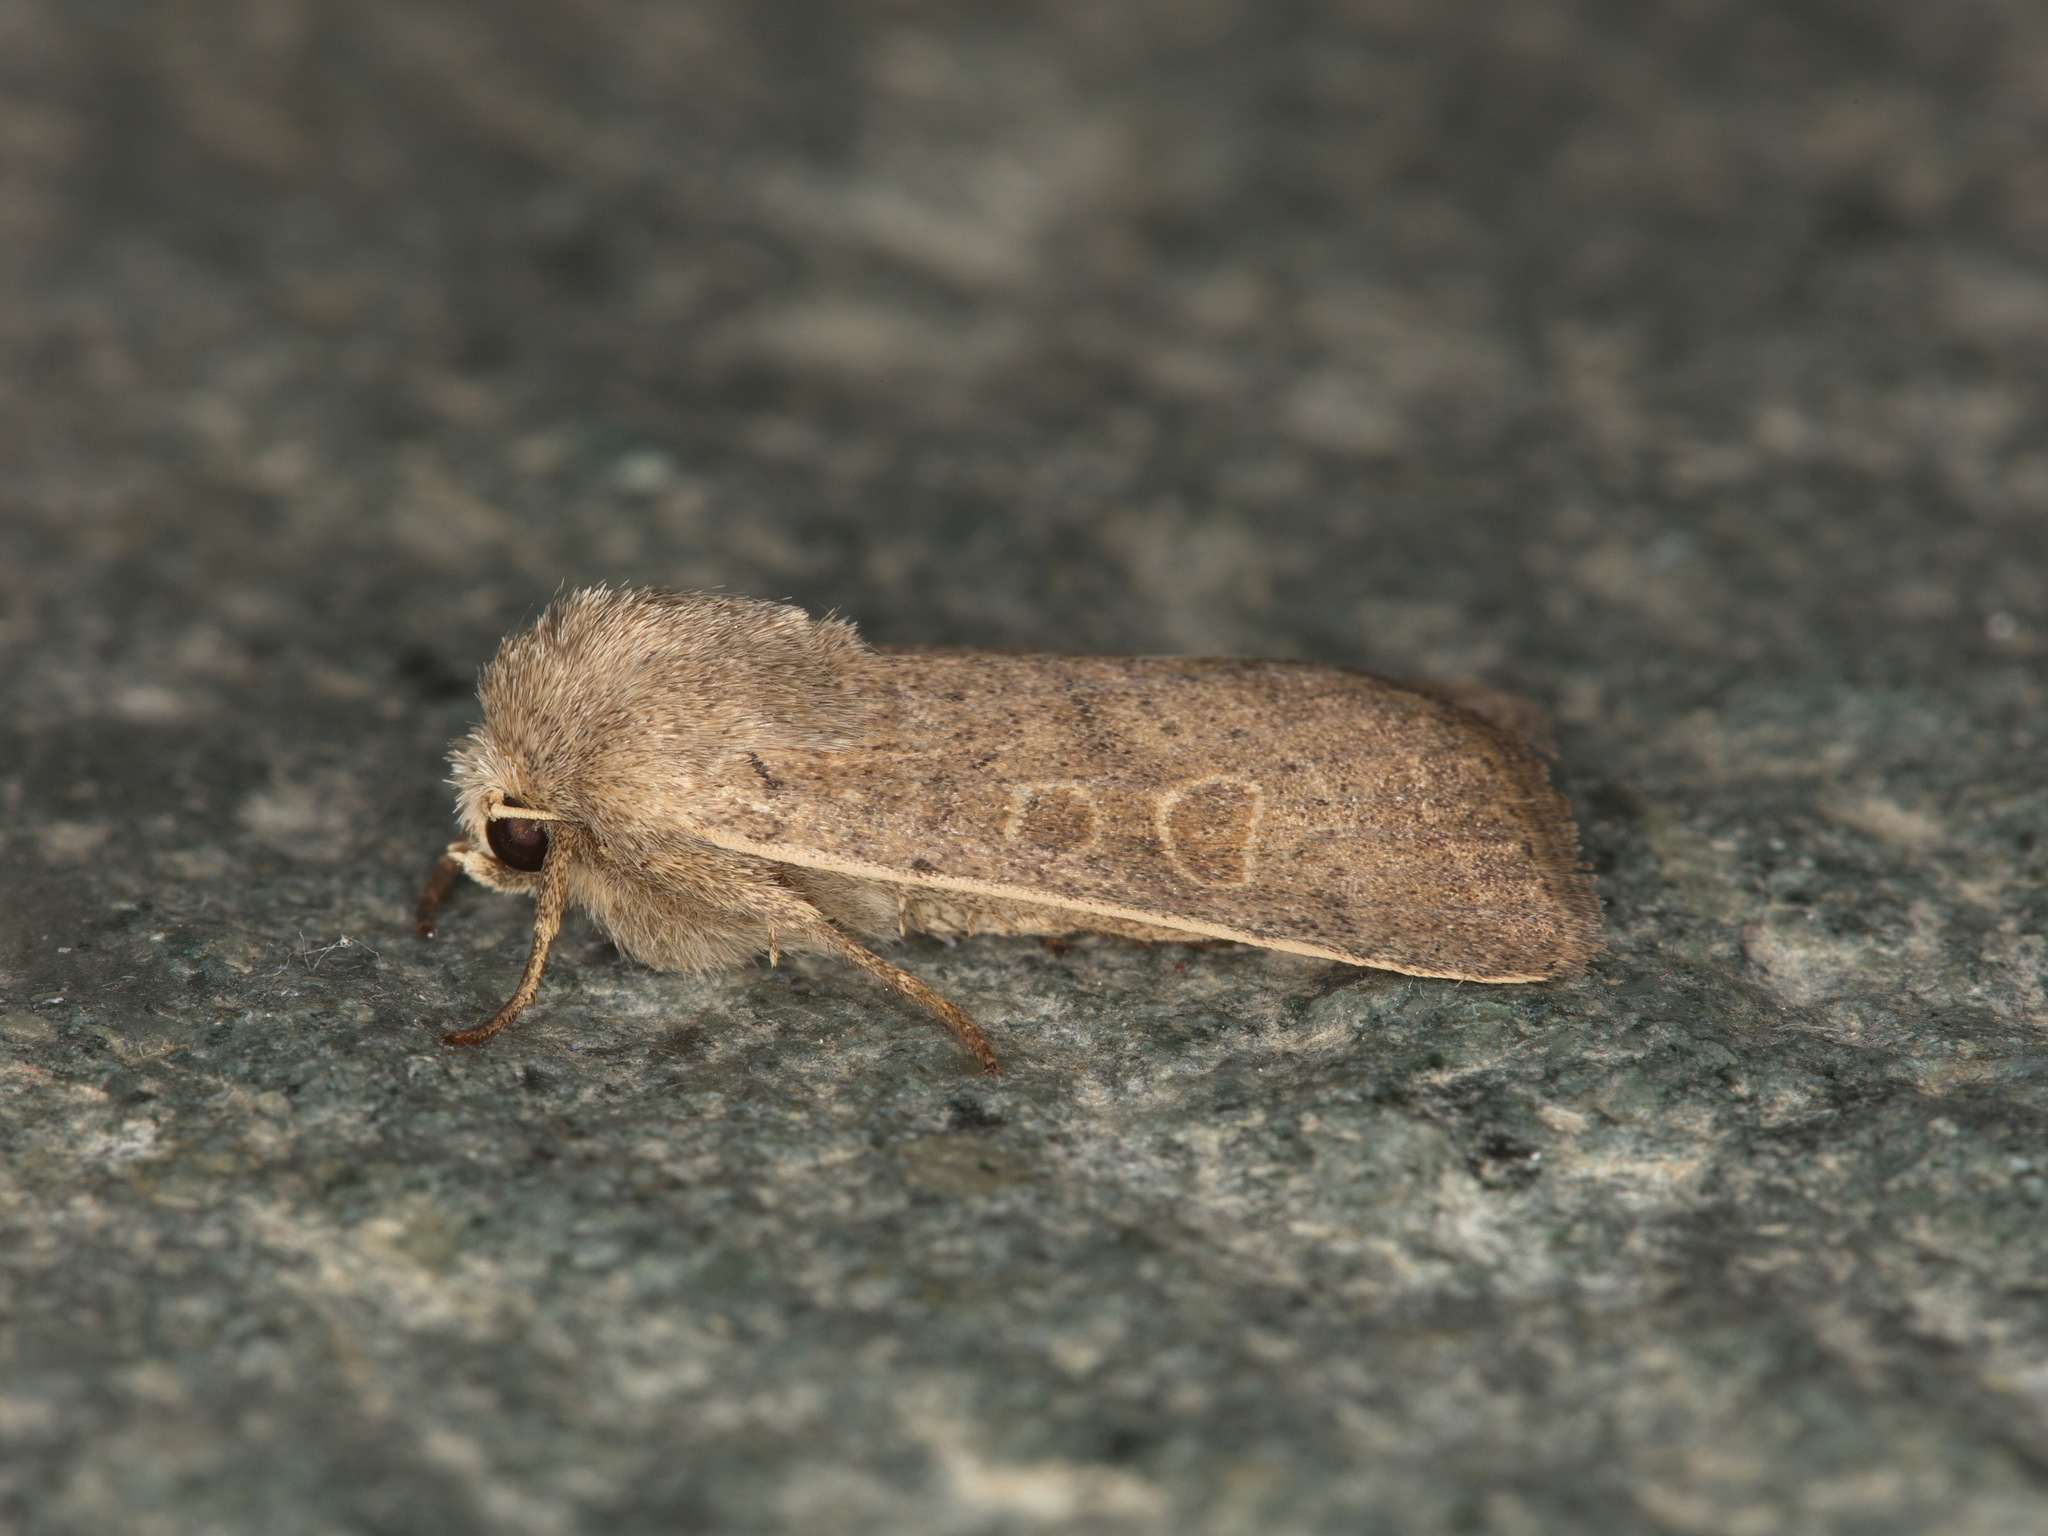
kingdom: Animalia
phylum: Arthropoda
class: Insecta
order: Lepidoptera
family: Noctuidae
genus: Hoplodrina
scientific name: Hoplodrina ambigua
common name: Vine's rustic
